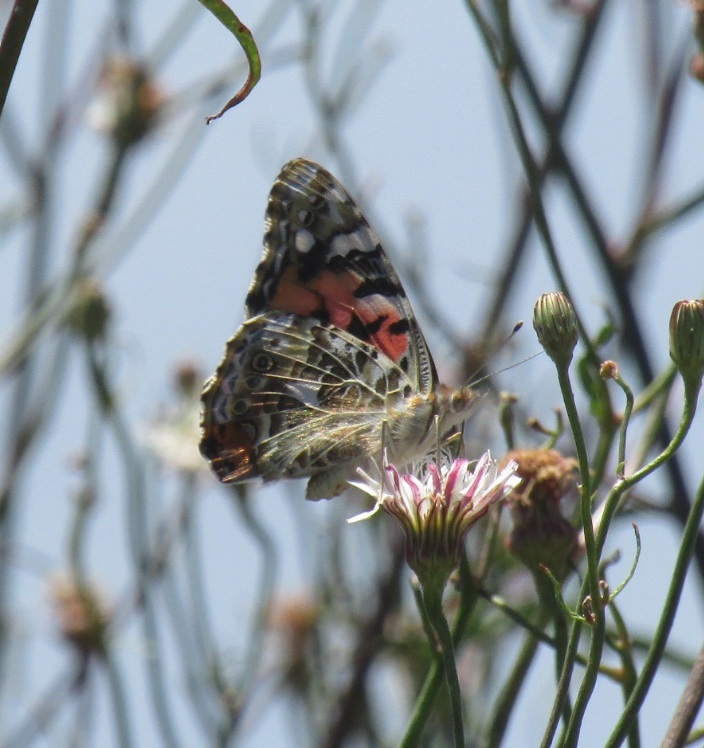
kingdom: Animalia
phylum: Arthropoda
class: Insecta
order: Lepidoptera
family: Nymphalidae
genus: Vanessa
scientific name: Vanessa cardui
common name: Painted lady
